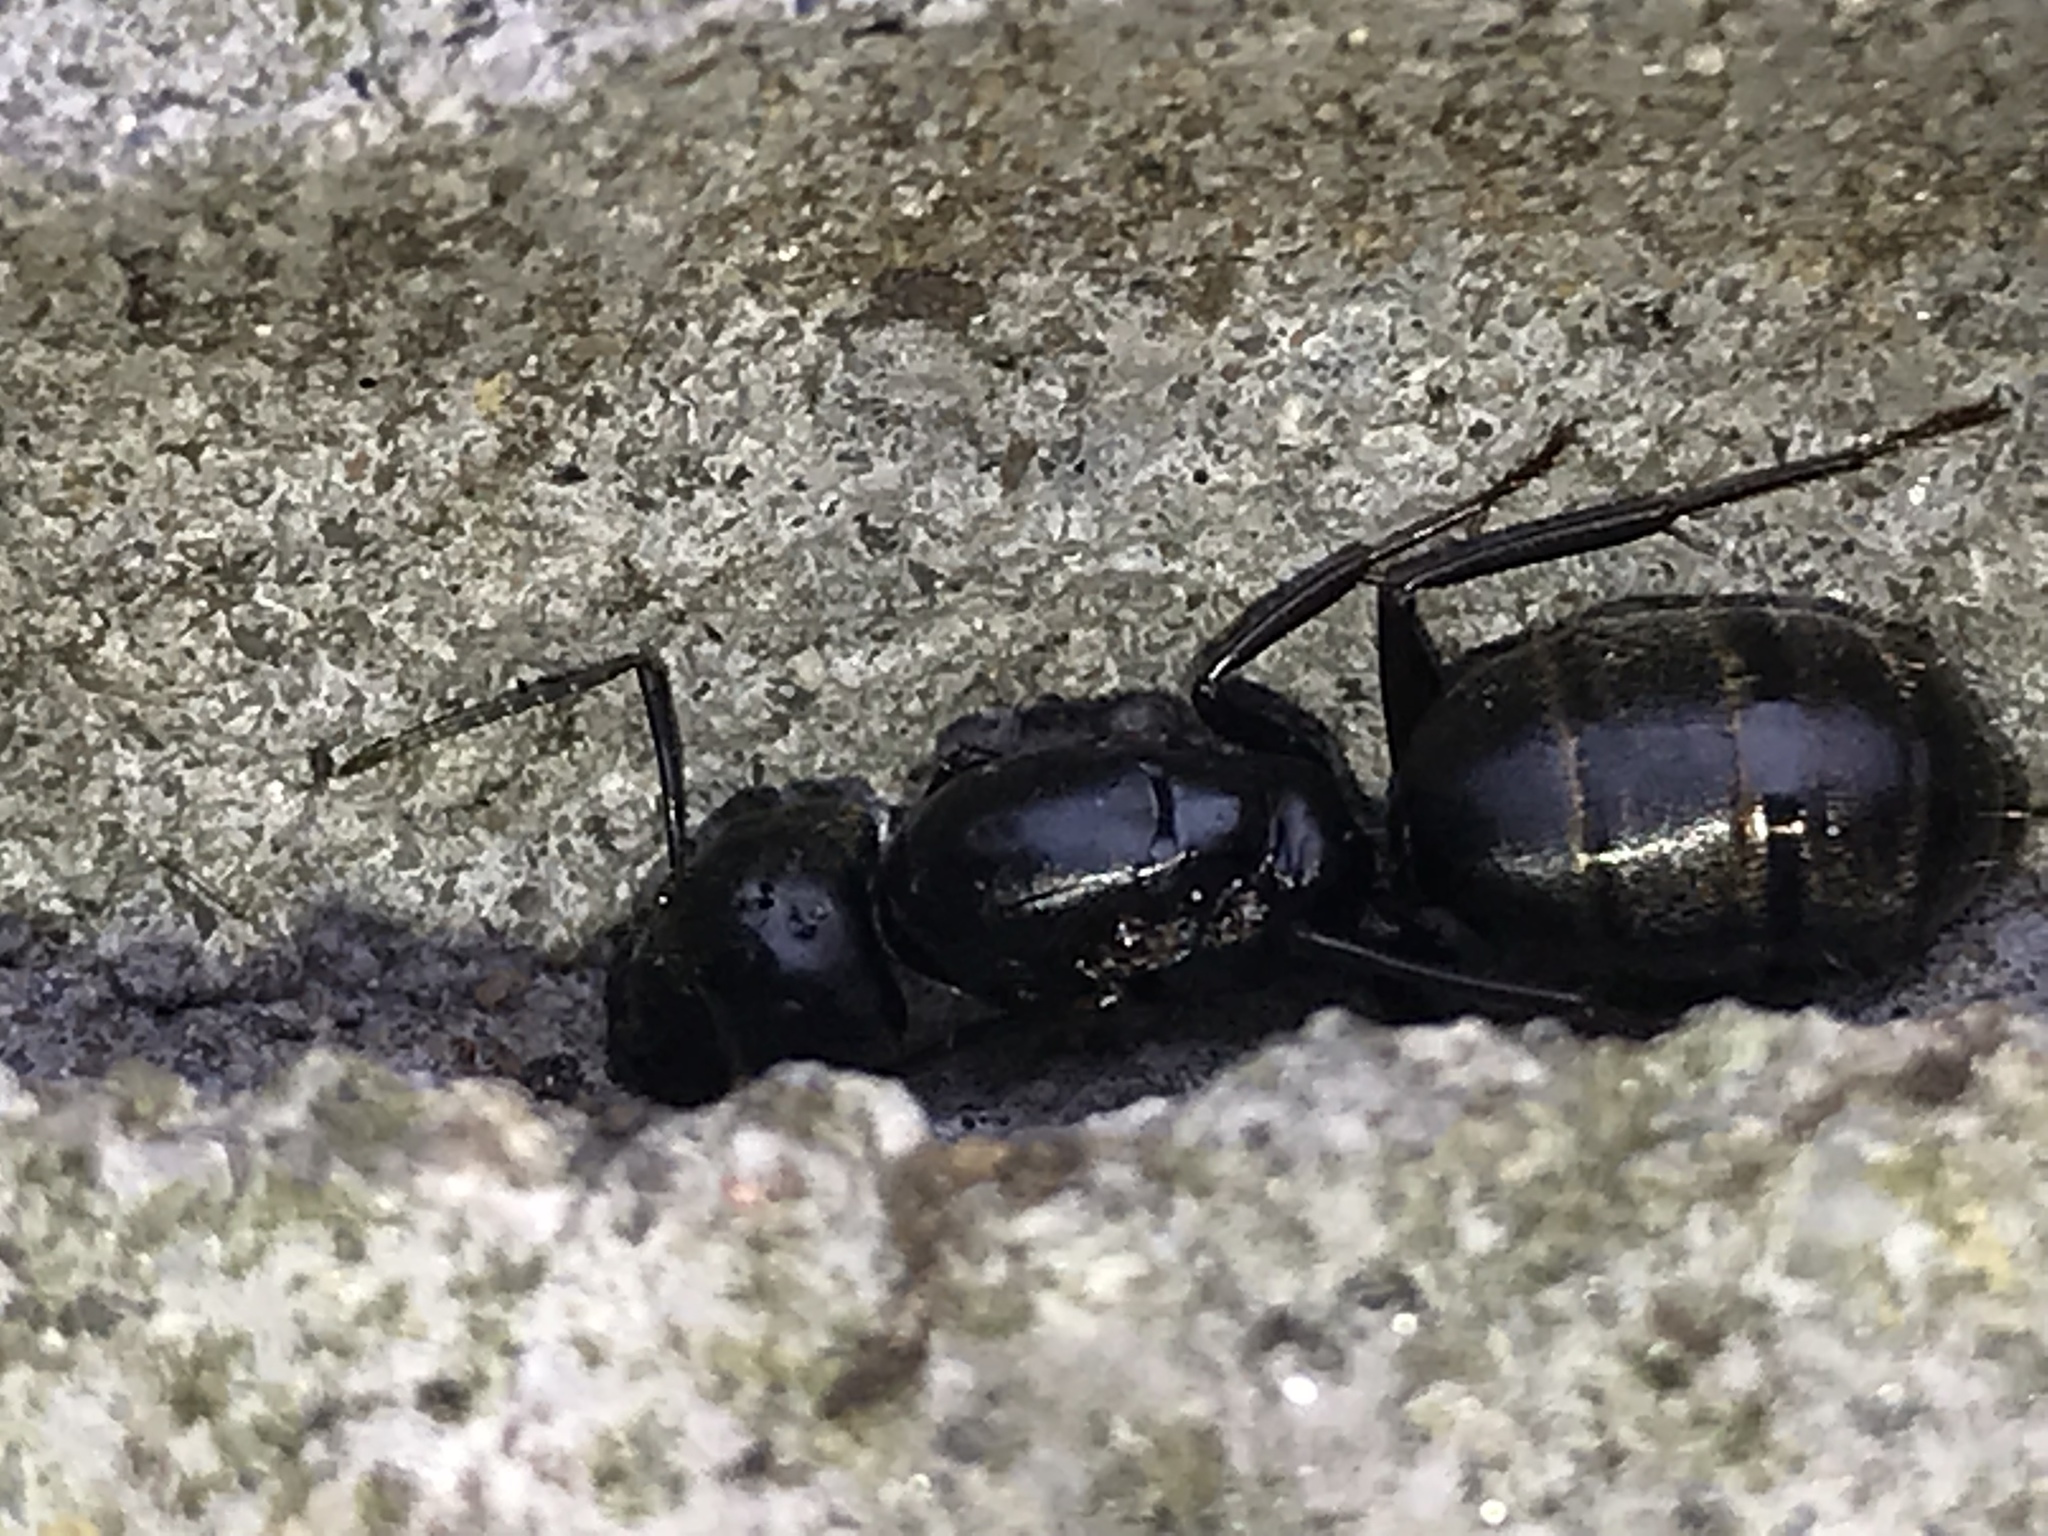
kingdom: Animalia
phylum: Arthropoda
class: Insecta
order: Hymenoptera
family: Formicidae
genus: Camponotus
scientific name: Camponotus pennsylvanicus
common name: Black carpenter ant
